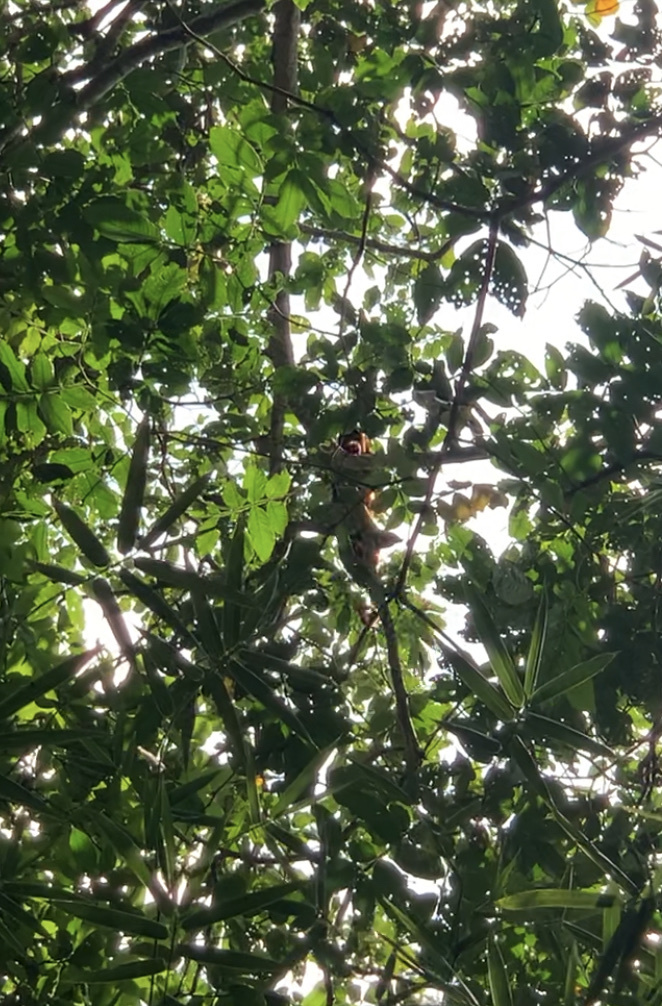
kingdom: Animalia
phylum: Chordata
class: Mammalia
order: Primates
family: Atelidae
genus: Alouatta
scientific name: Alouatta seniculus
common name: Venezuelan red howler
